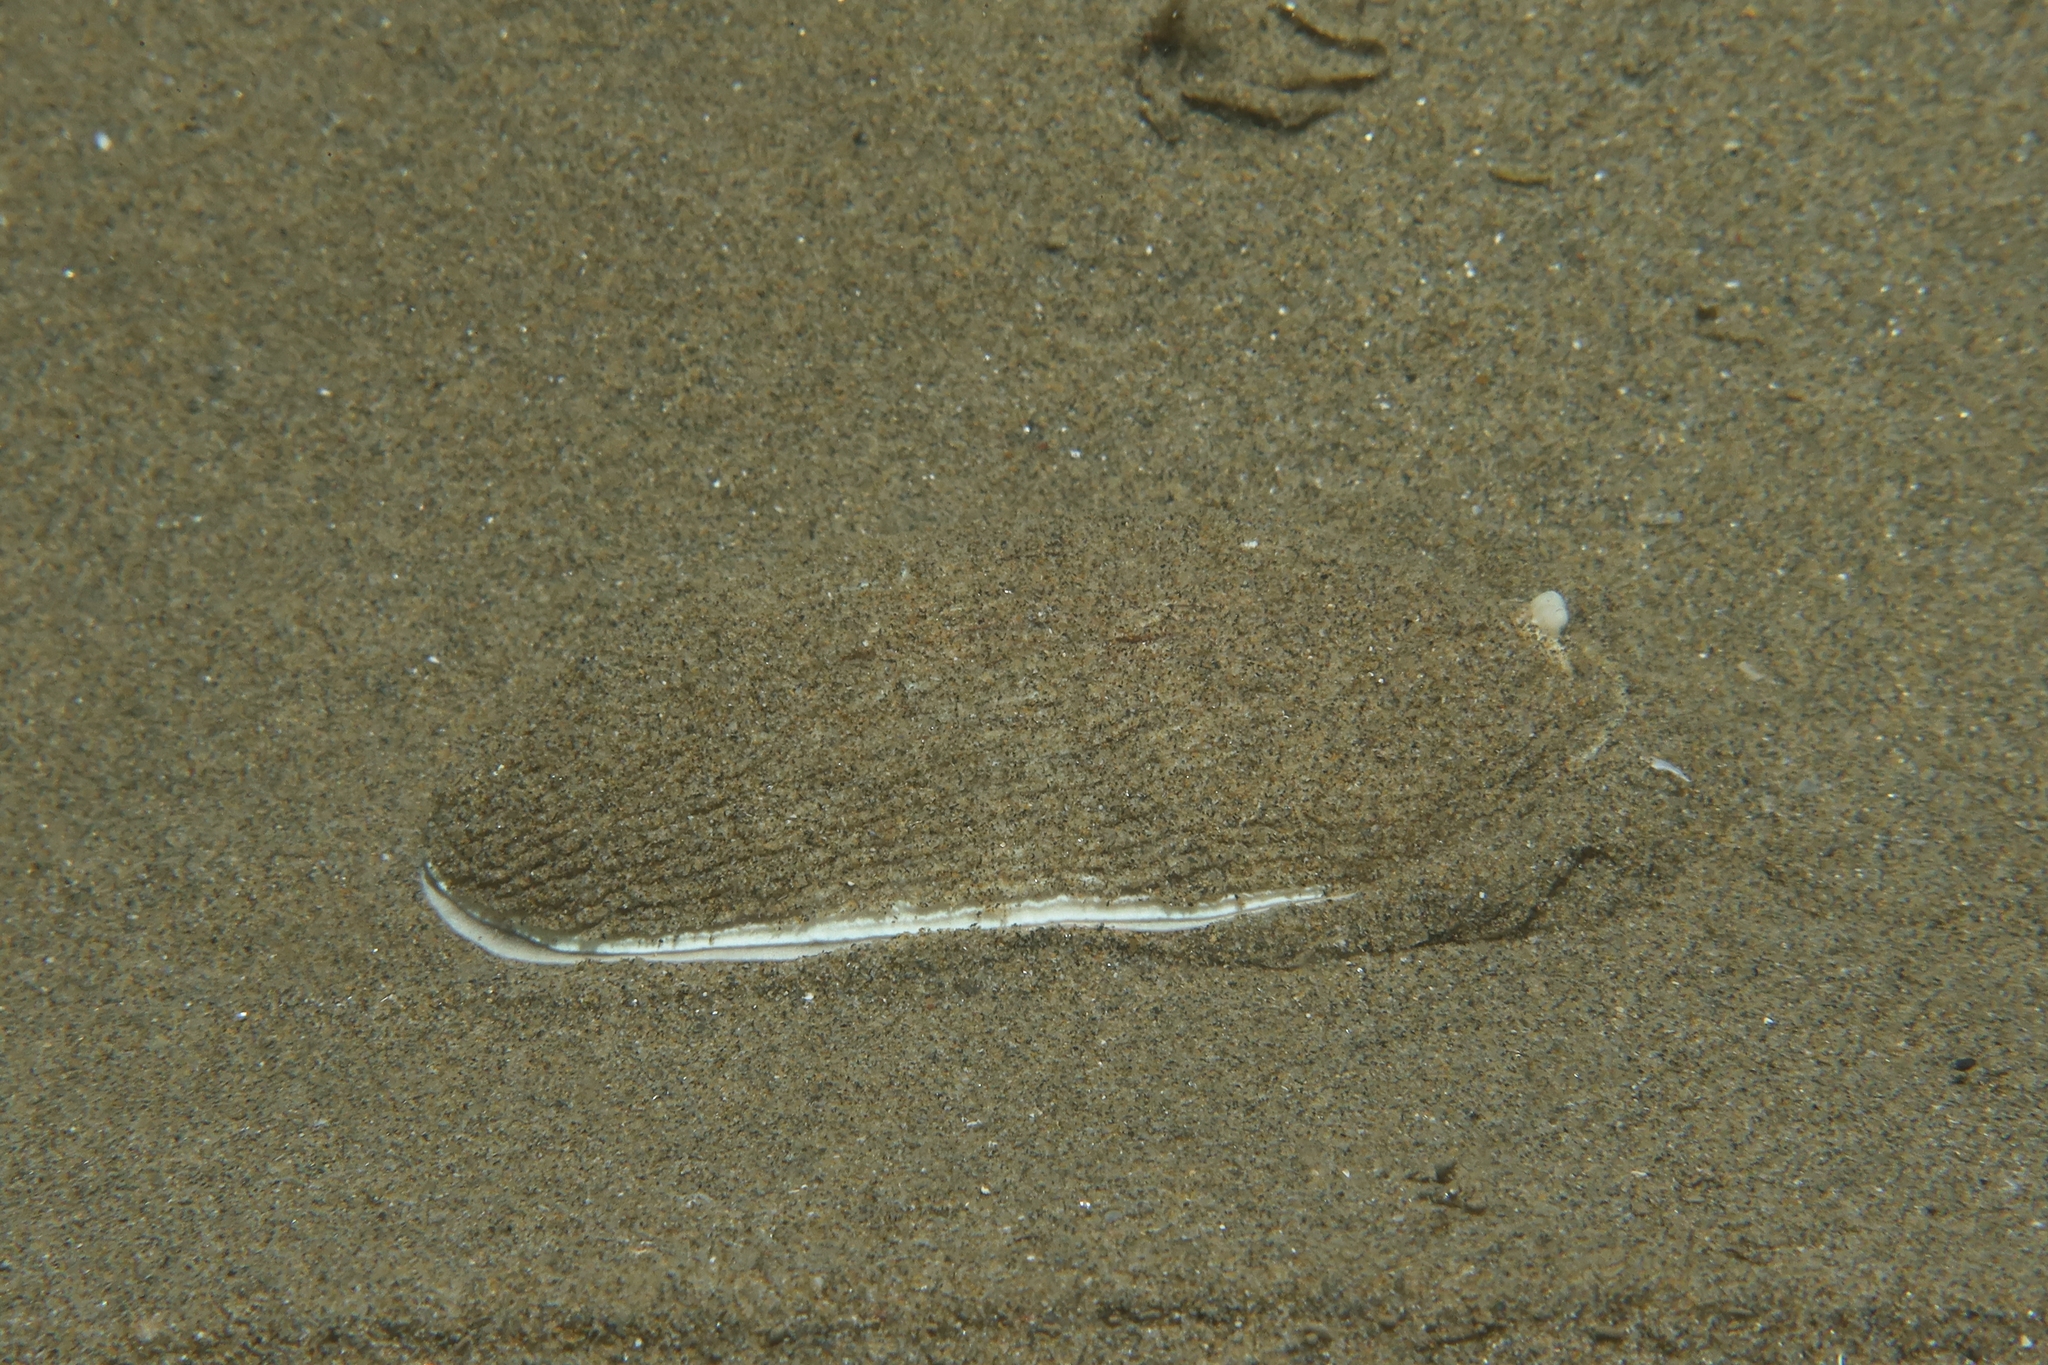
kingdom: Animalia
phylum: Mollusca
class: Gastropoda
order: Nudibranchia
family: Arminidae
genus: Armina
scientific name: Armina tigrina
